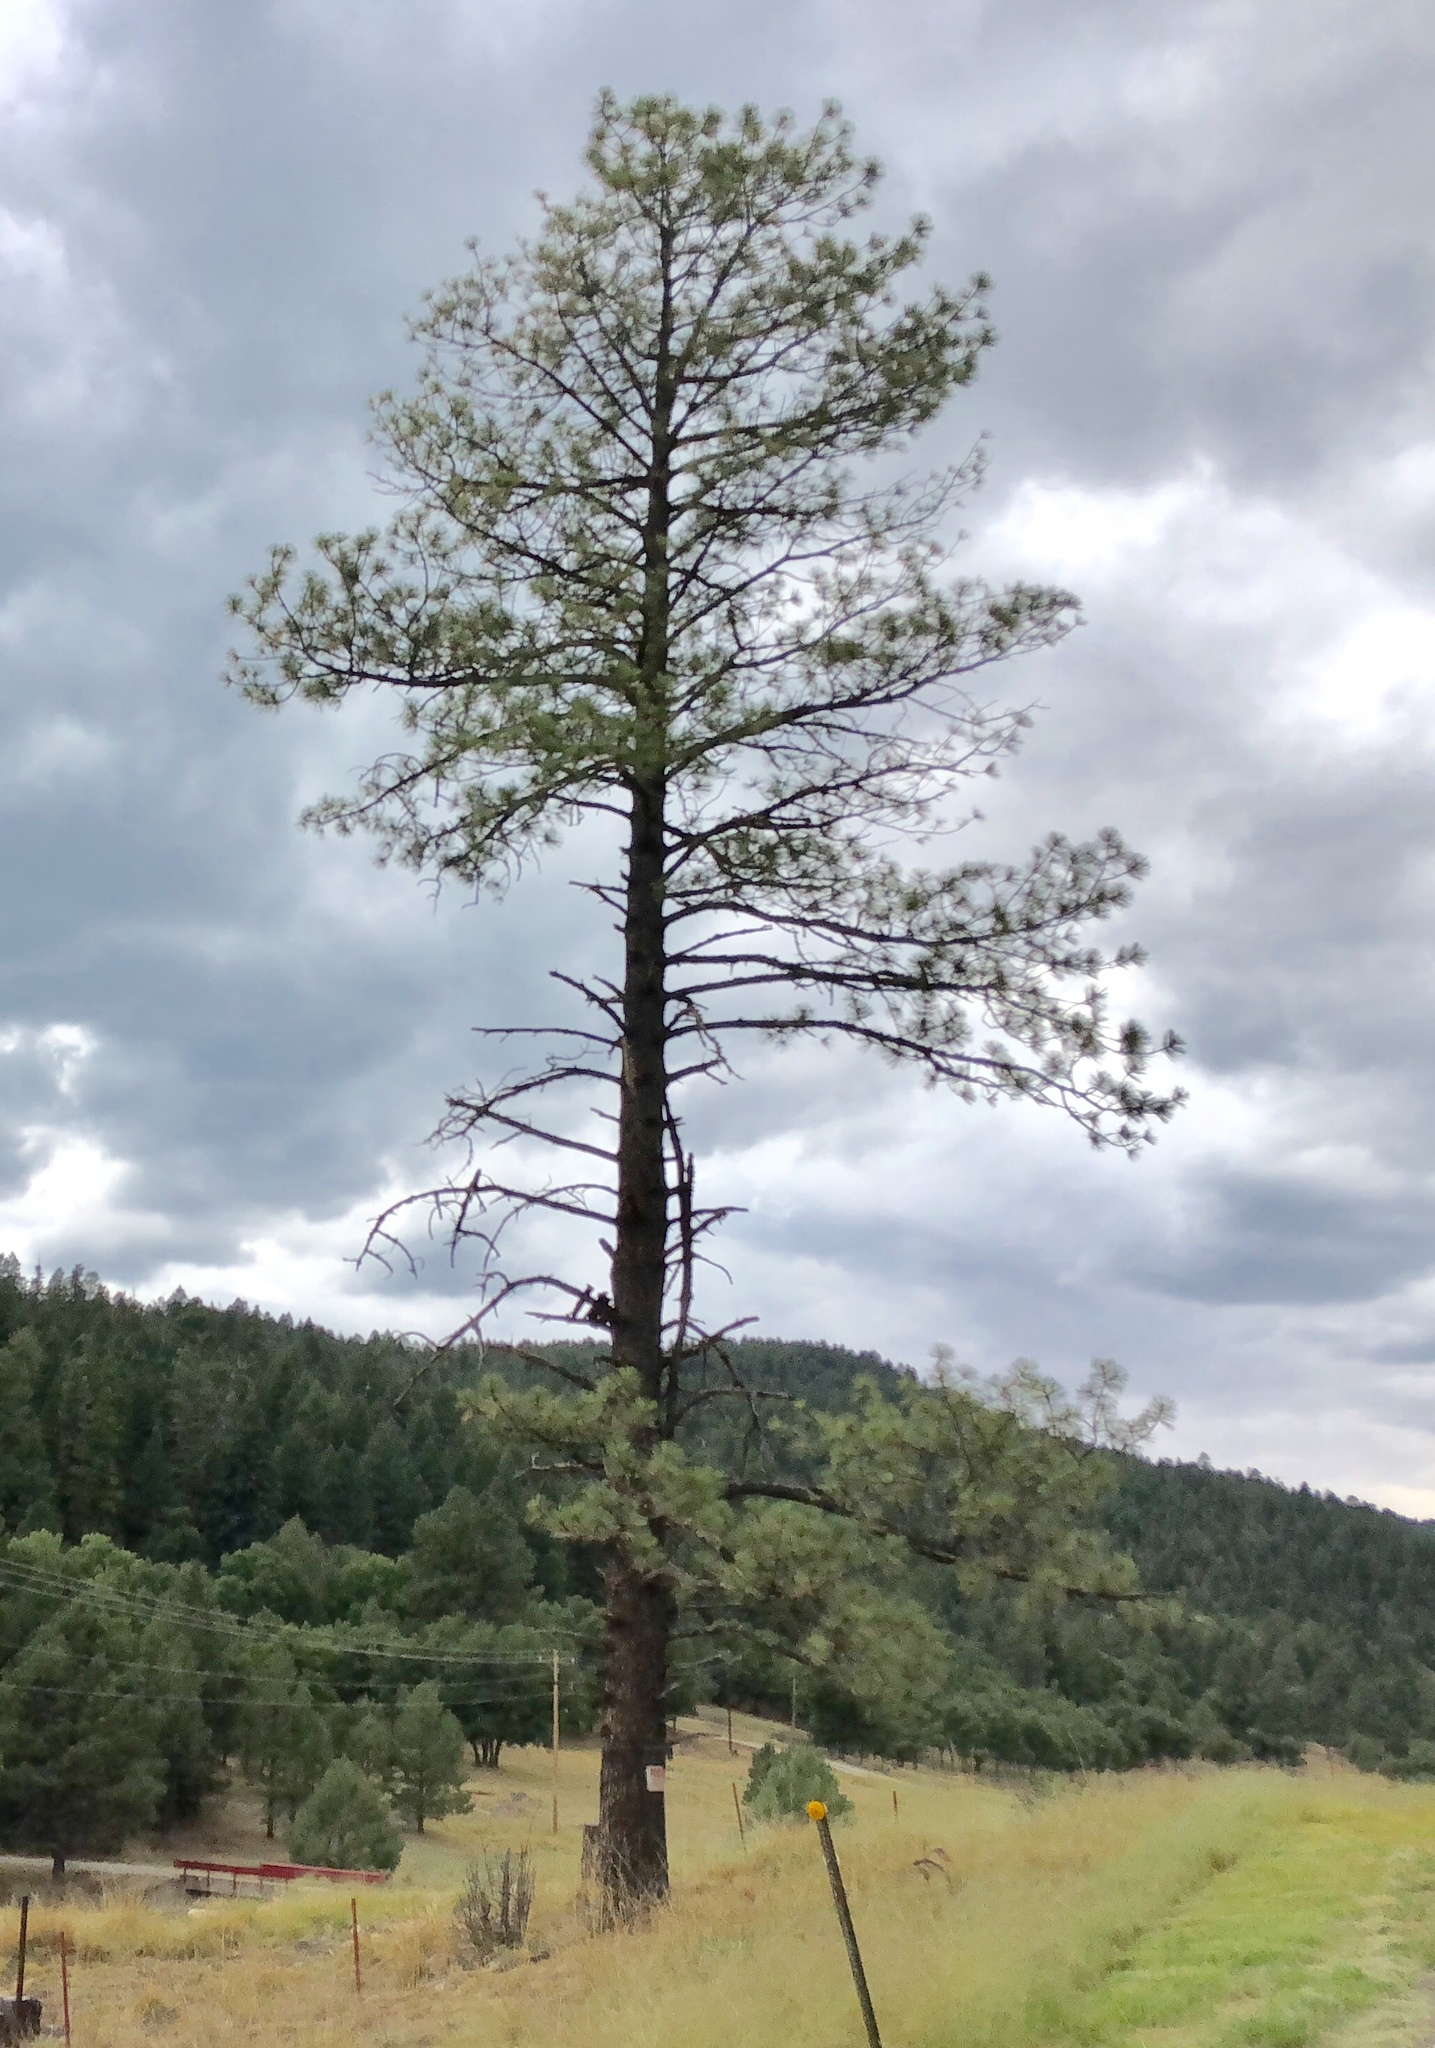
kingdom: Plantae
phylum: Tracheophyta
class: Pinopsida
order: Pinales
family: Pinaceae
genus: Pinus
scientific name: Pinus ponderosa
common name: Western yellow-pine
